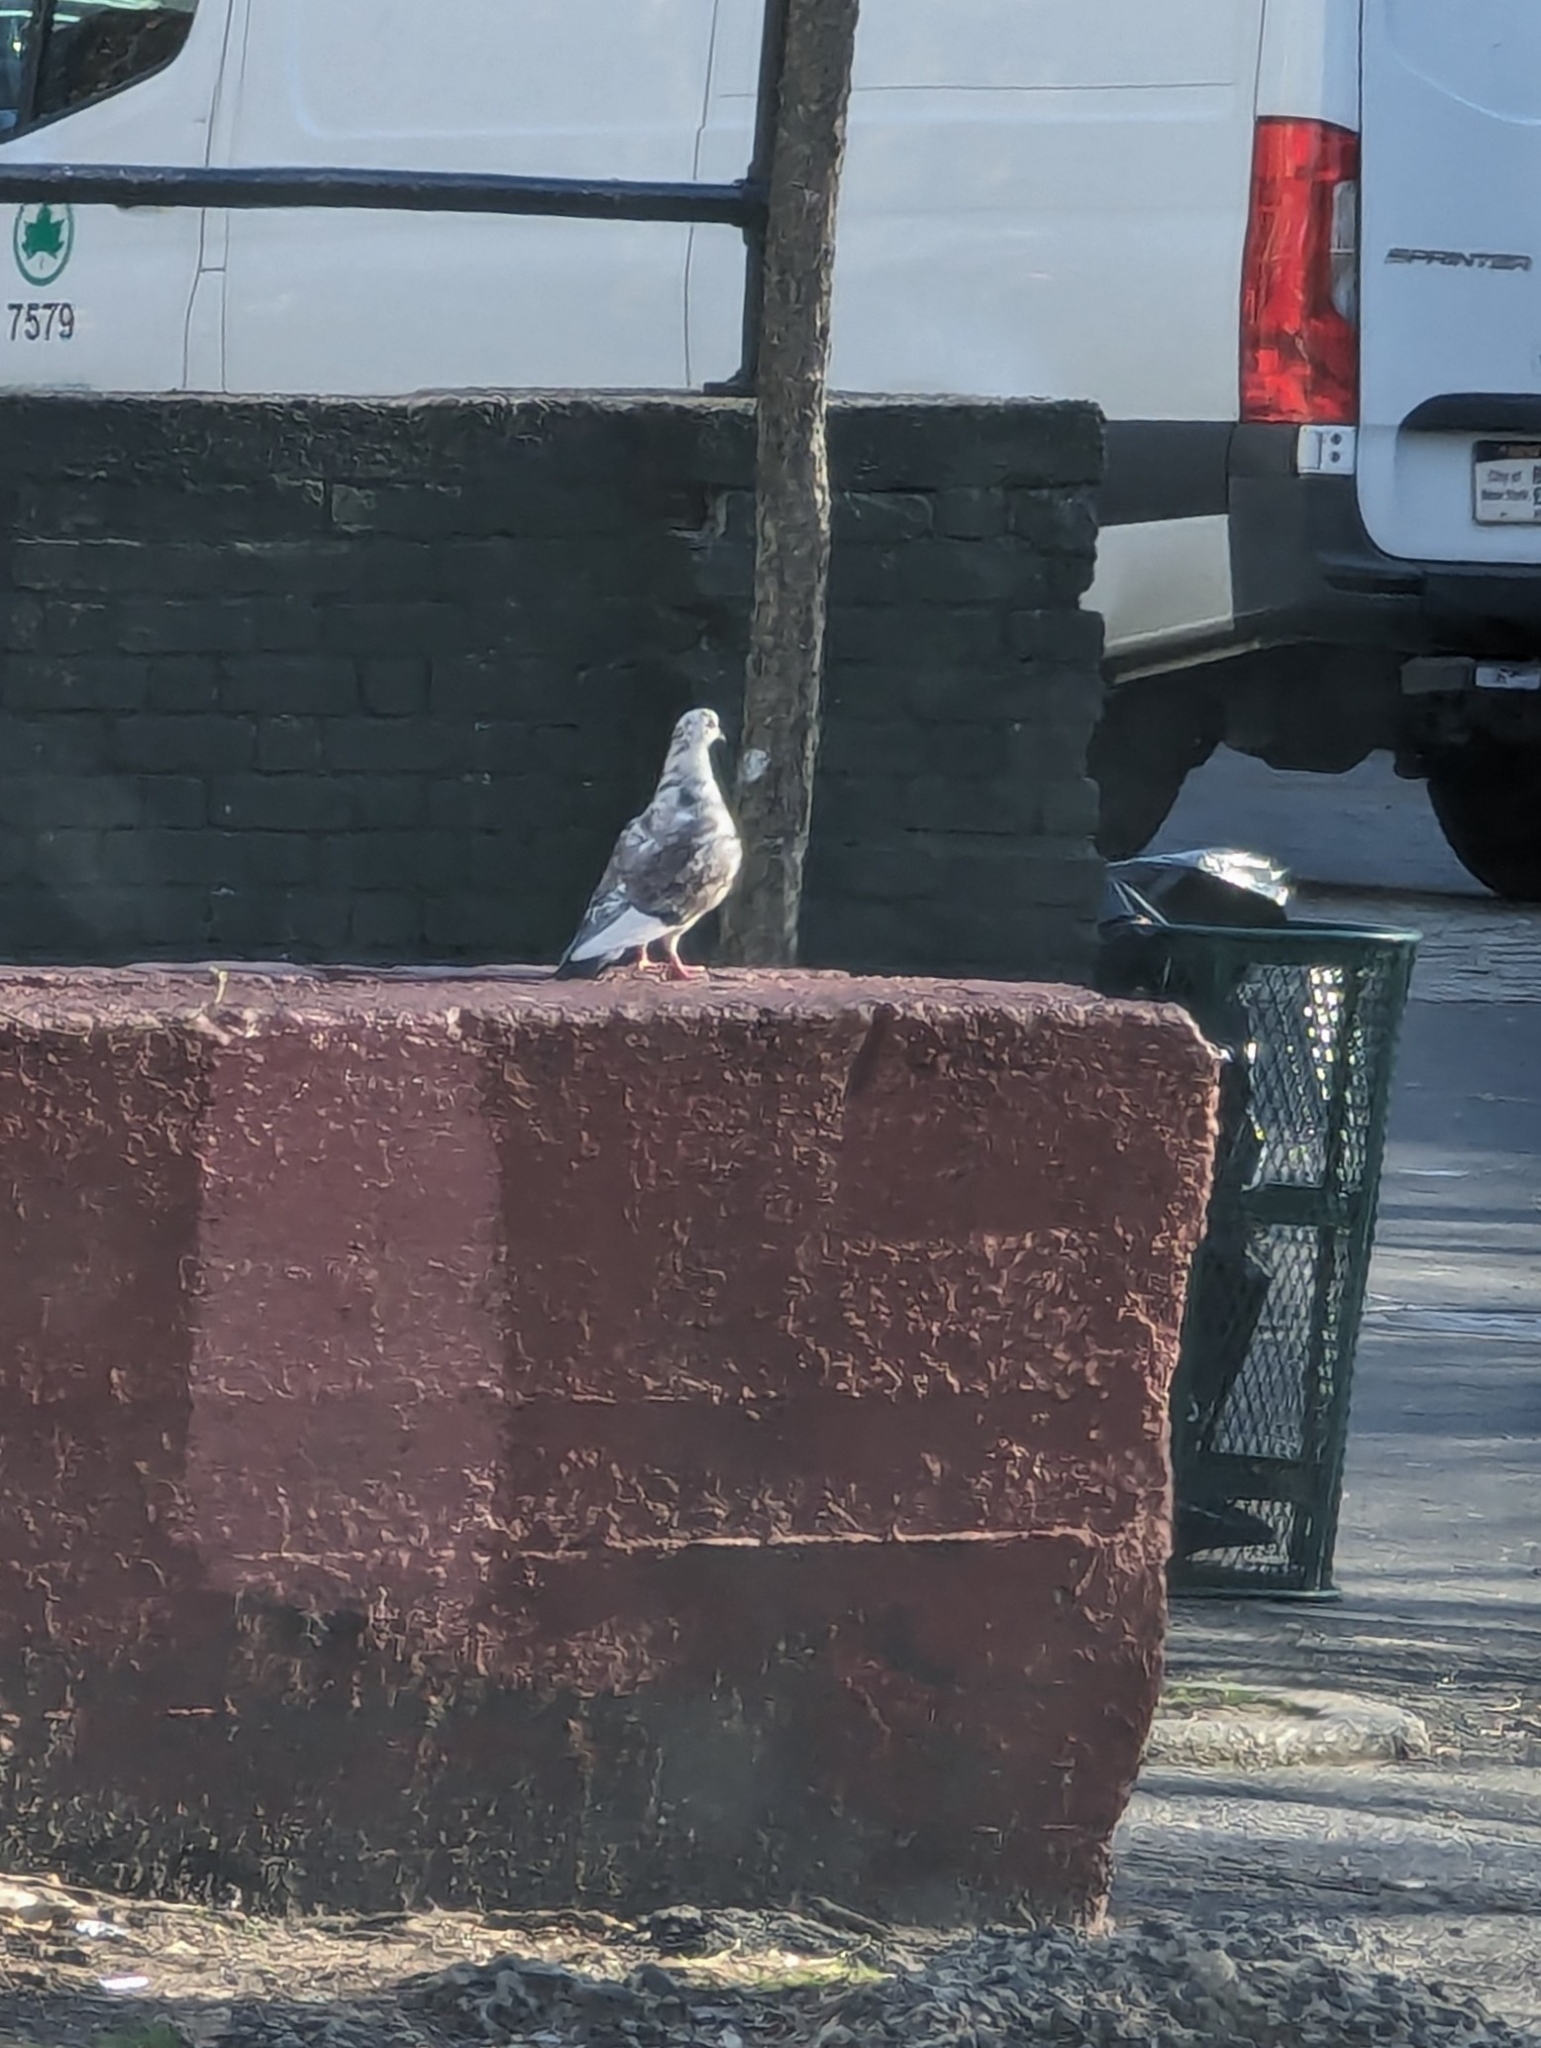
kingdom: Animalia
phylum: Chordata
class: Aves
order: Columbiformes
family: Columbidae
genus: Columba
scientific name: Columba livia
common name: Rock pigeon
